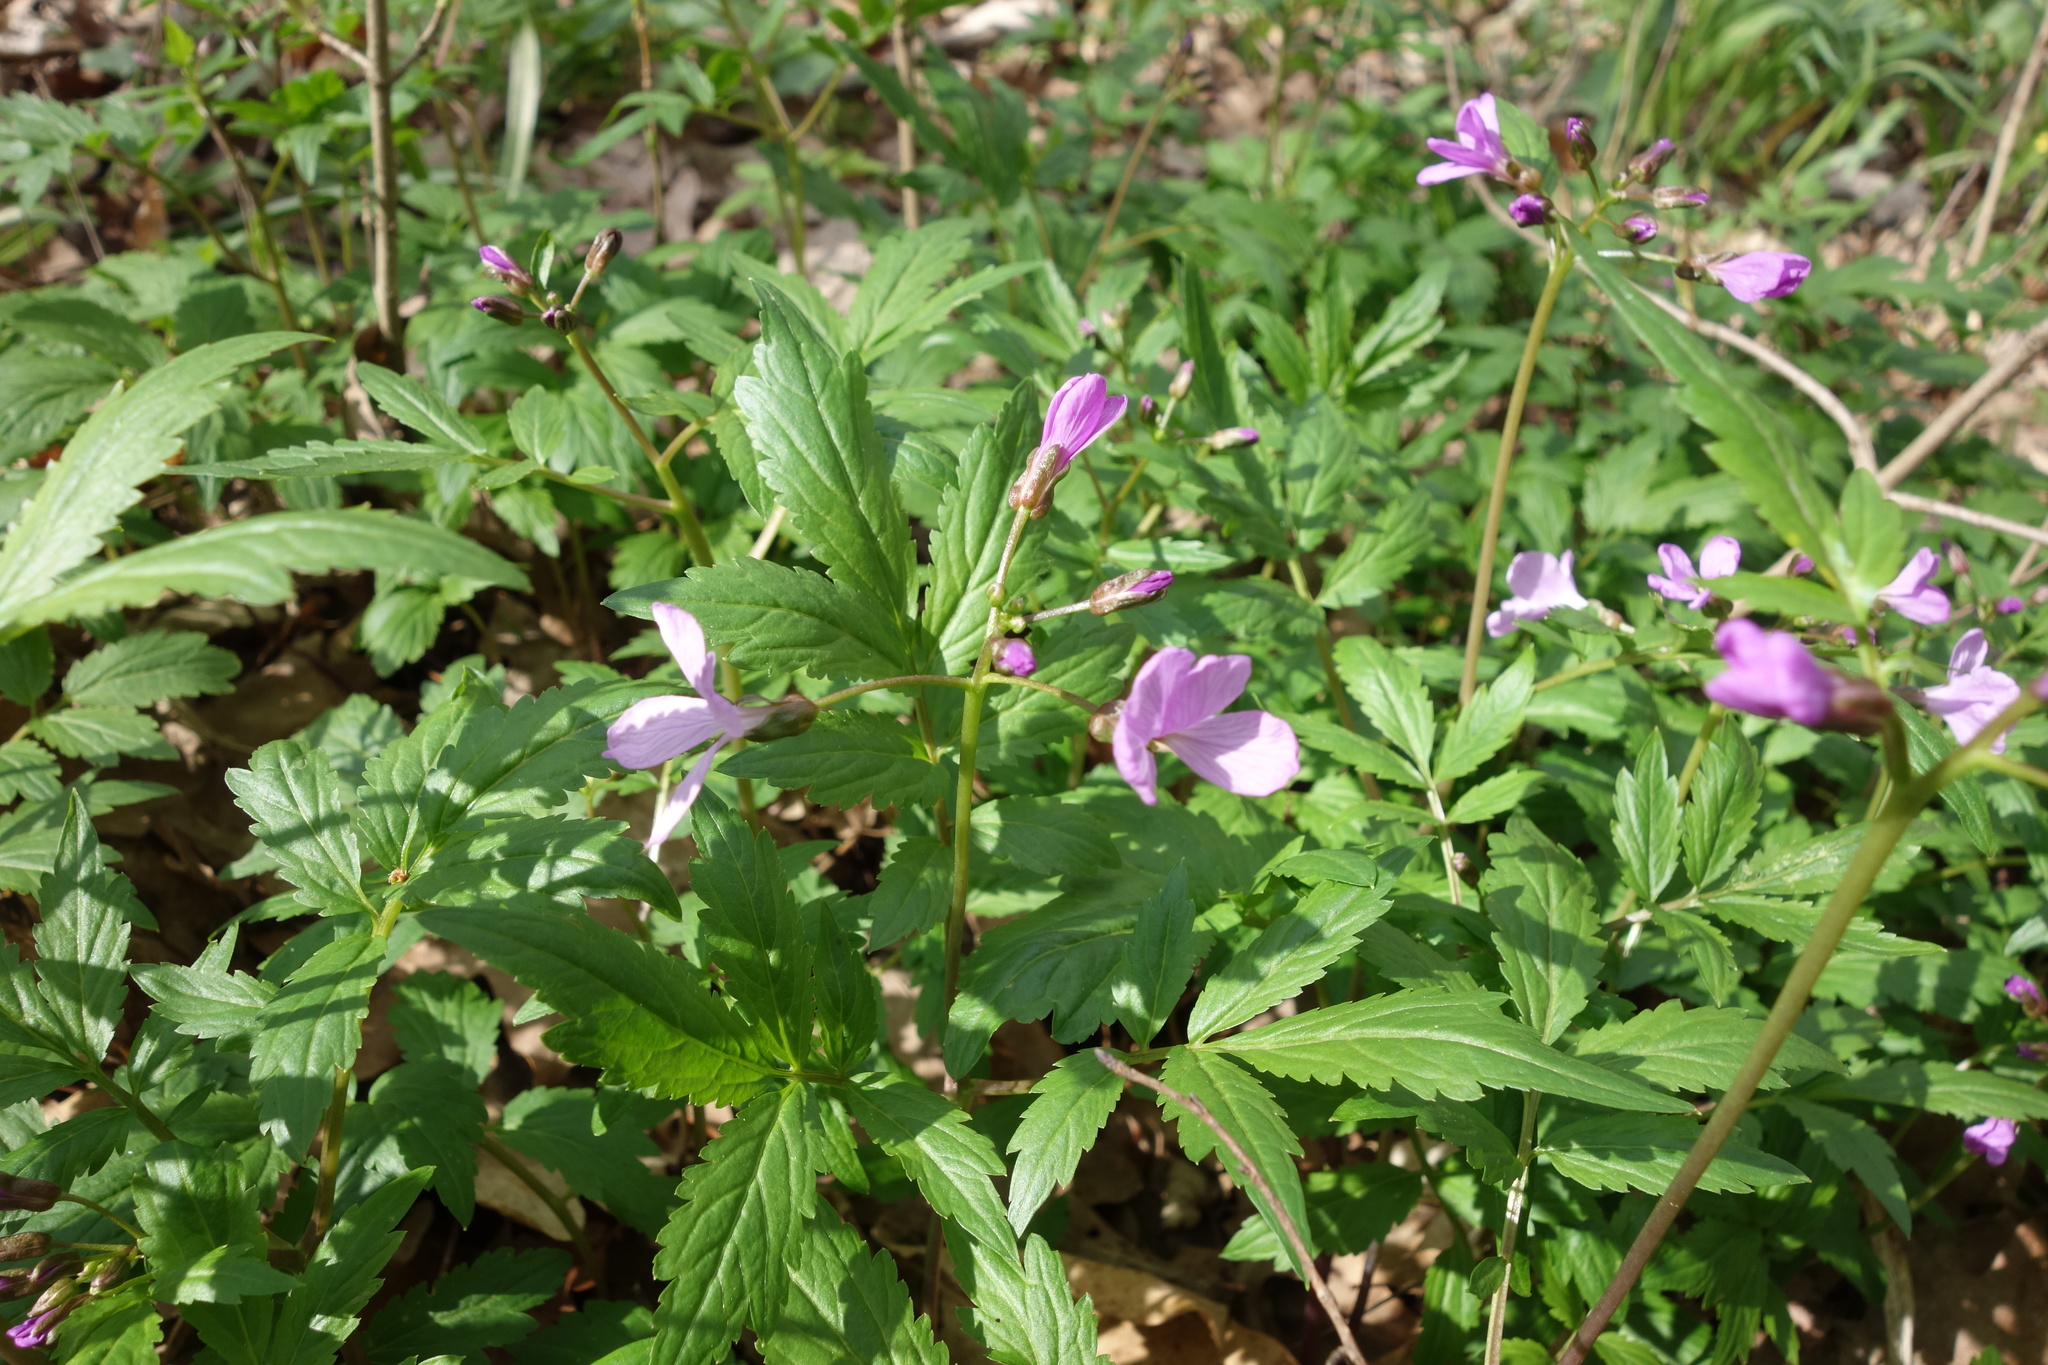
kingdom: Plantae
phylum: Tracheophyta
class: Magnoliopsida
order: Brassicales
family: Brassicaceae
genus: Cardamine
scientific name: Cardamine quinquefolia
